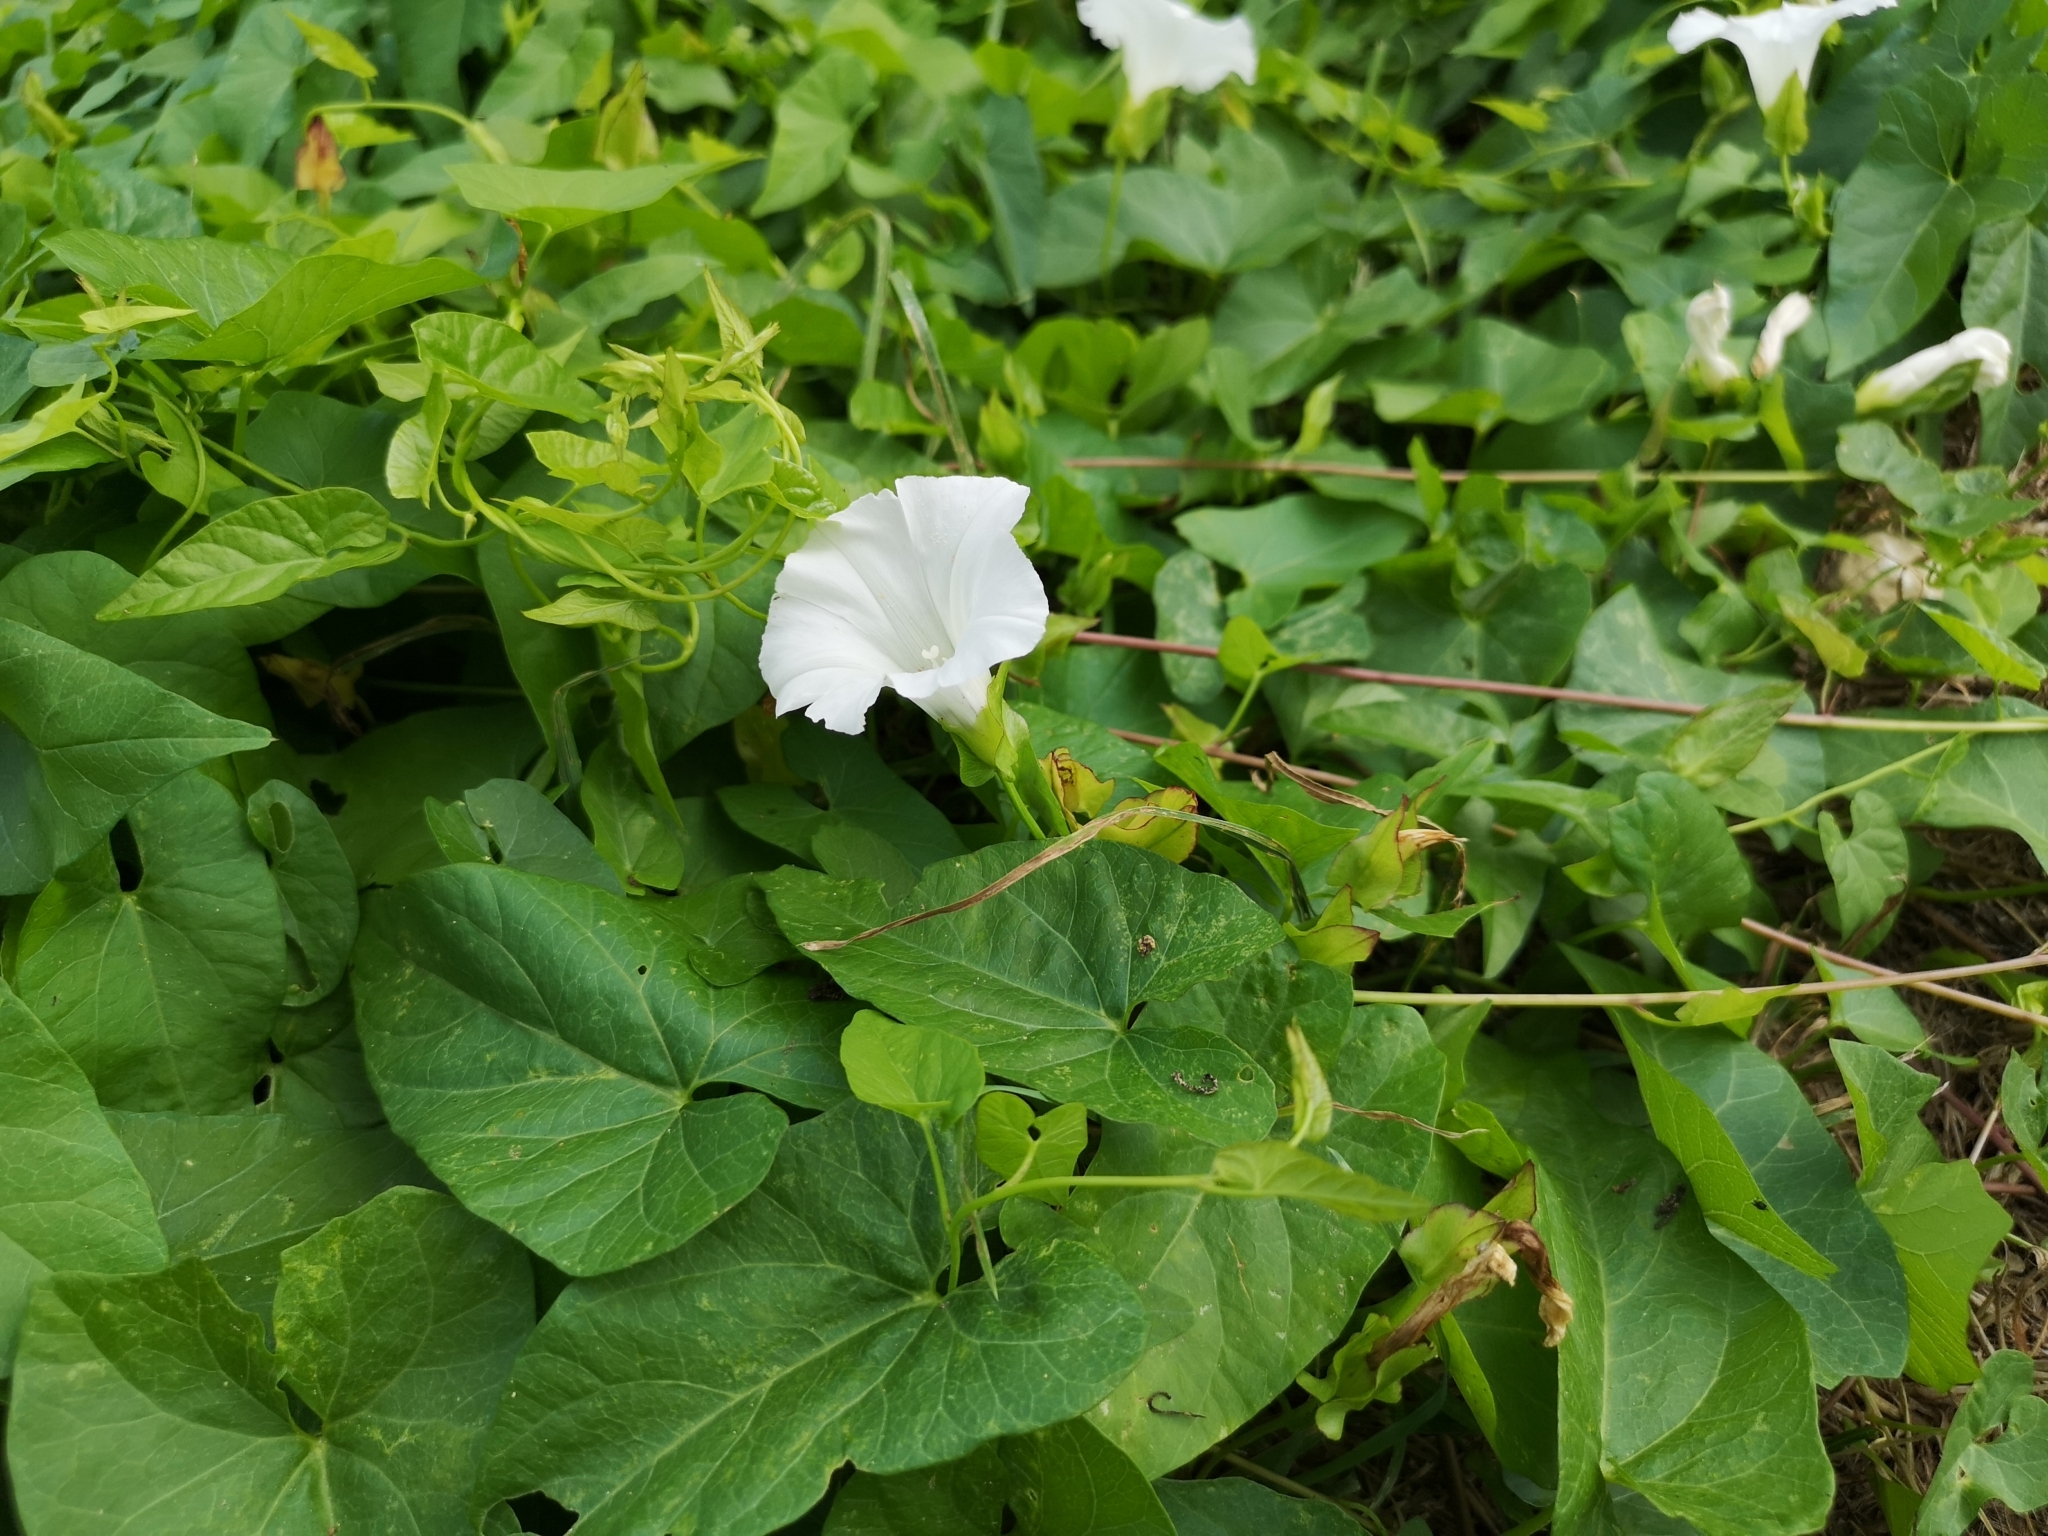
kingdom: Plantae
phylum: Tracheophyta
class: Magnoliopsida
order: Solanales
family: Convolvulaceae
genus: Calystegia
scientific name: Calystegia sepium
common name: Hedge bindweed
